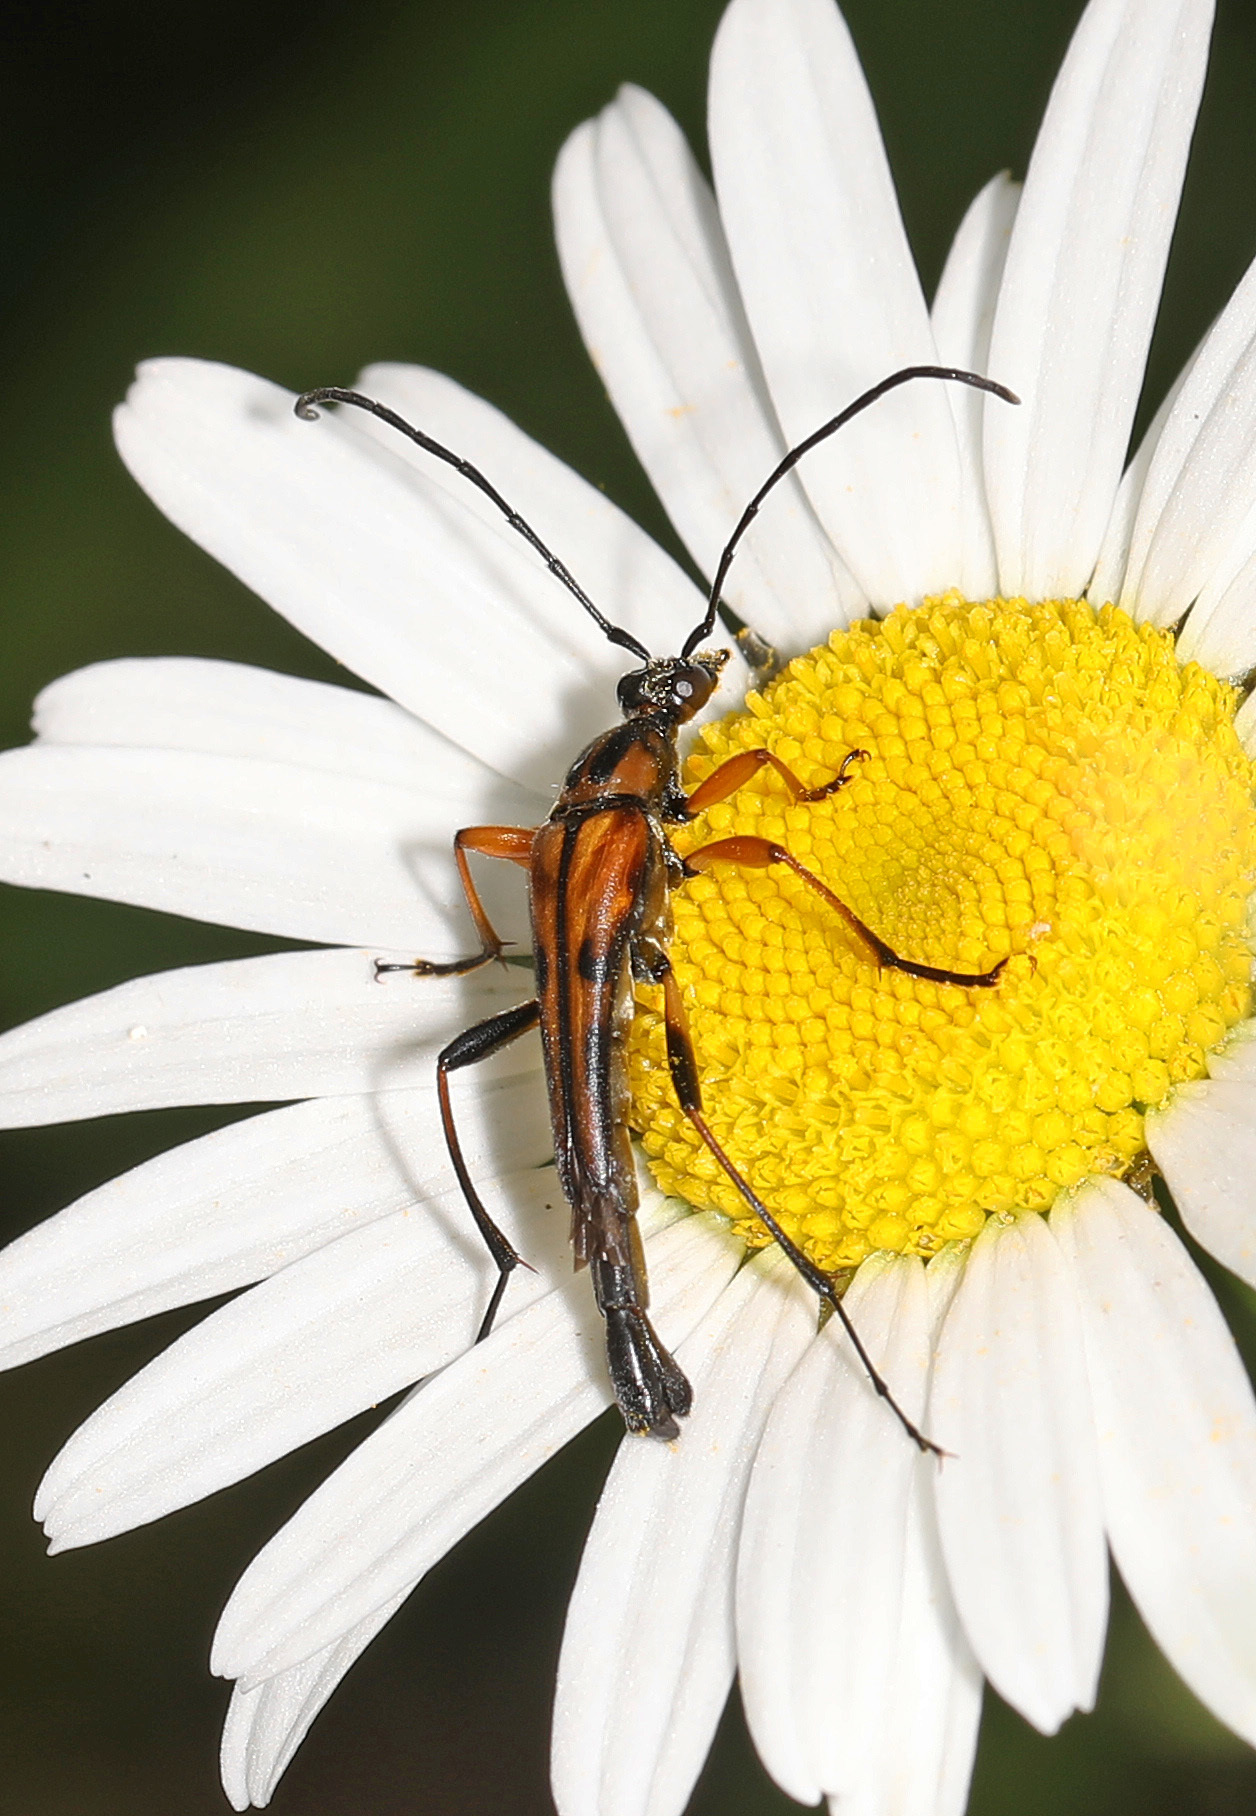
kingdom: Animalia
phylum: Arthropoda
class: Insecta
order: Coleoptera
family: Cerambycidae
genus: Strangalia
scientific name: Strangalia famelica
